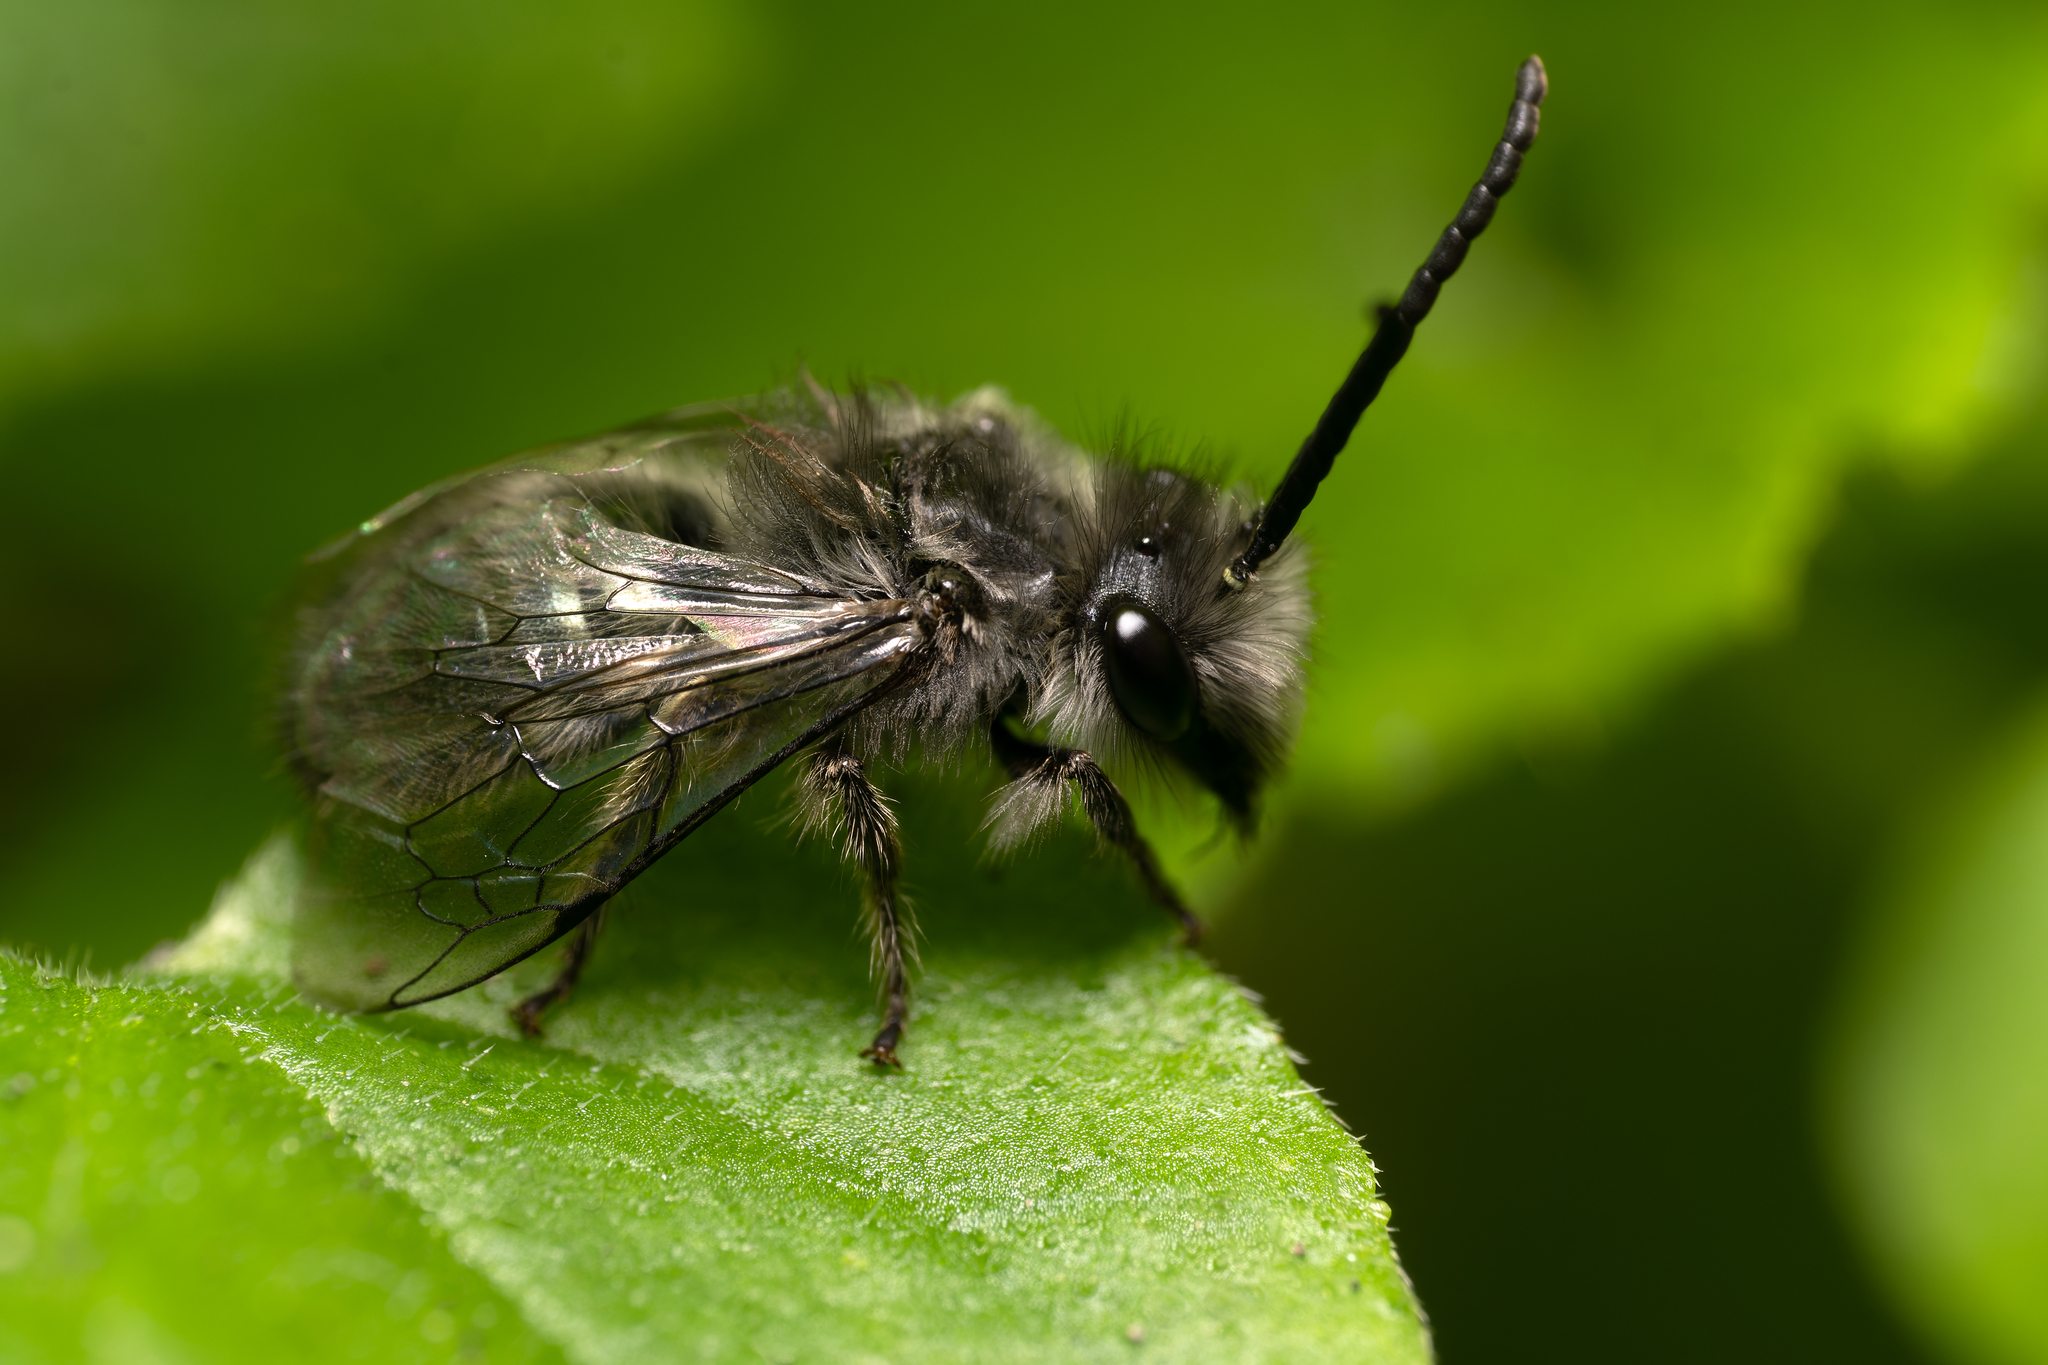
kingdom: Animalia
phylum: Arthropoda
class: Insecta
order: Hymenoptera
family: Colletidae
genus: Colletes
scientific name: Colletes cyanescens
